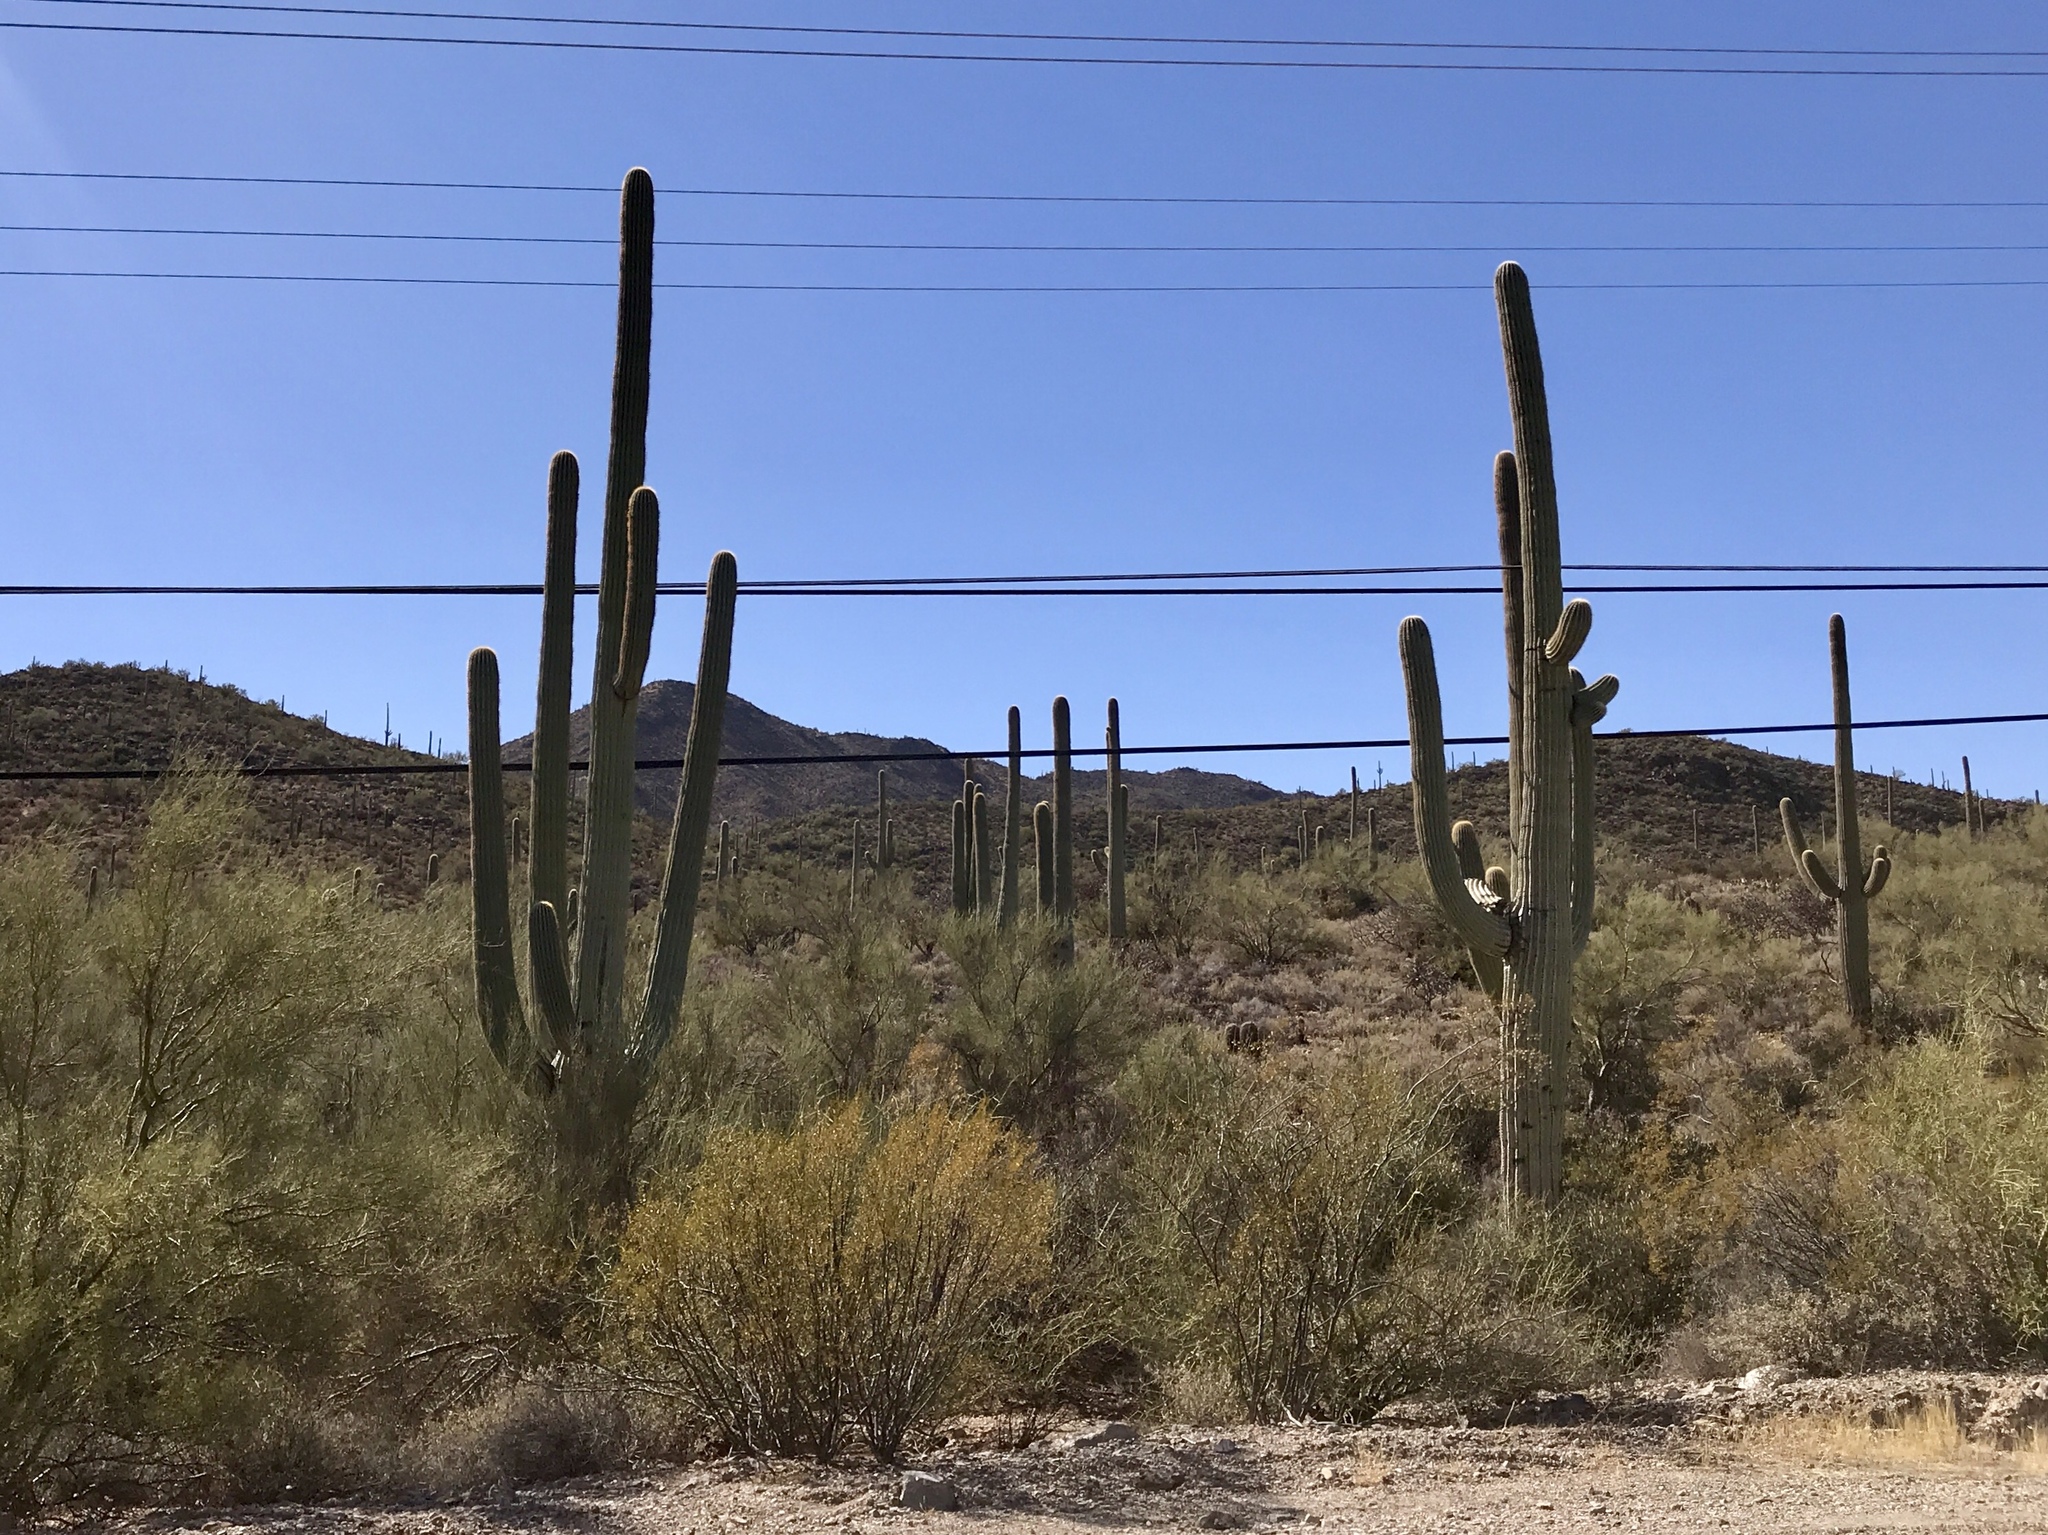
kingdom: Plantae
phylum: Tracheophyta
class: Magnoliopsida
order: Caryophyllales
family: Cactaceae
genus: Carnegiea
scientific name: Carnegiea gigantea
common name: Saguaro
